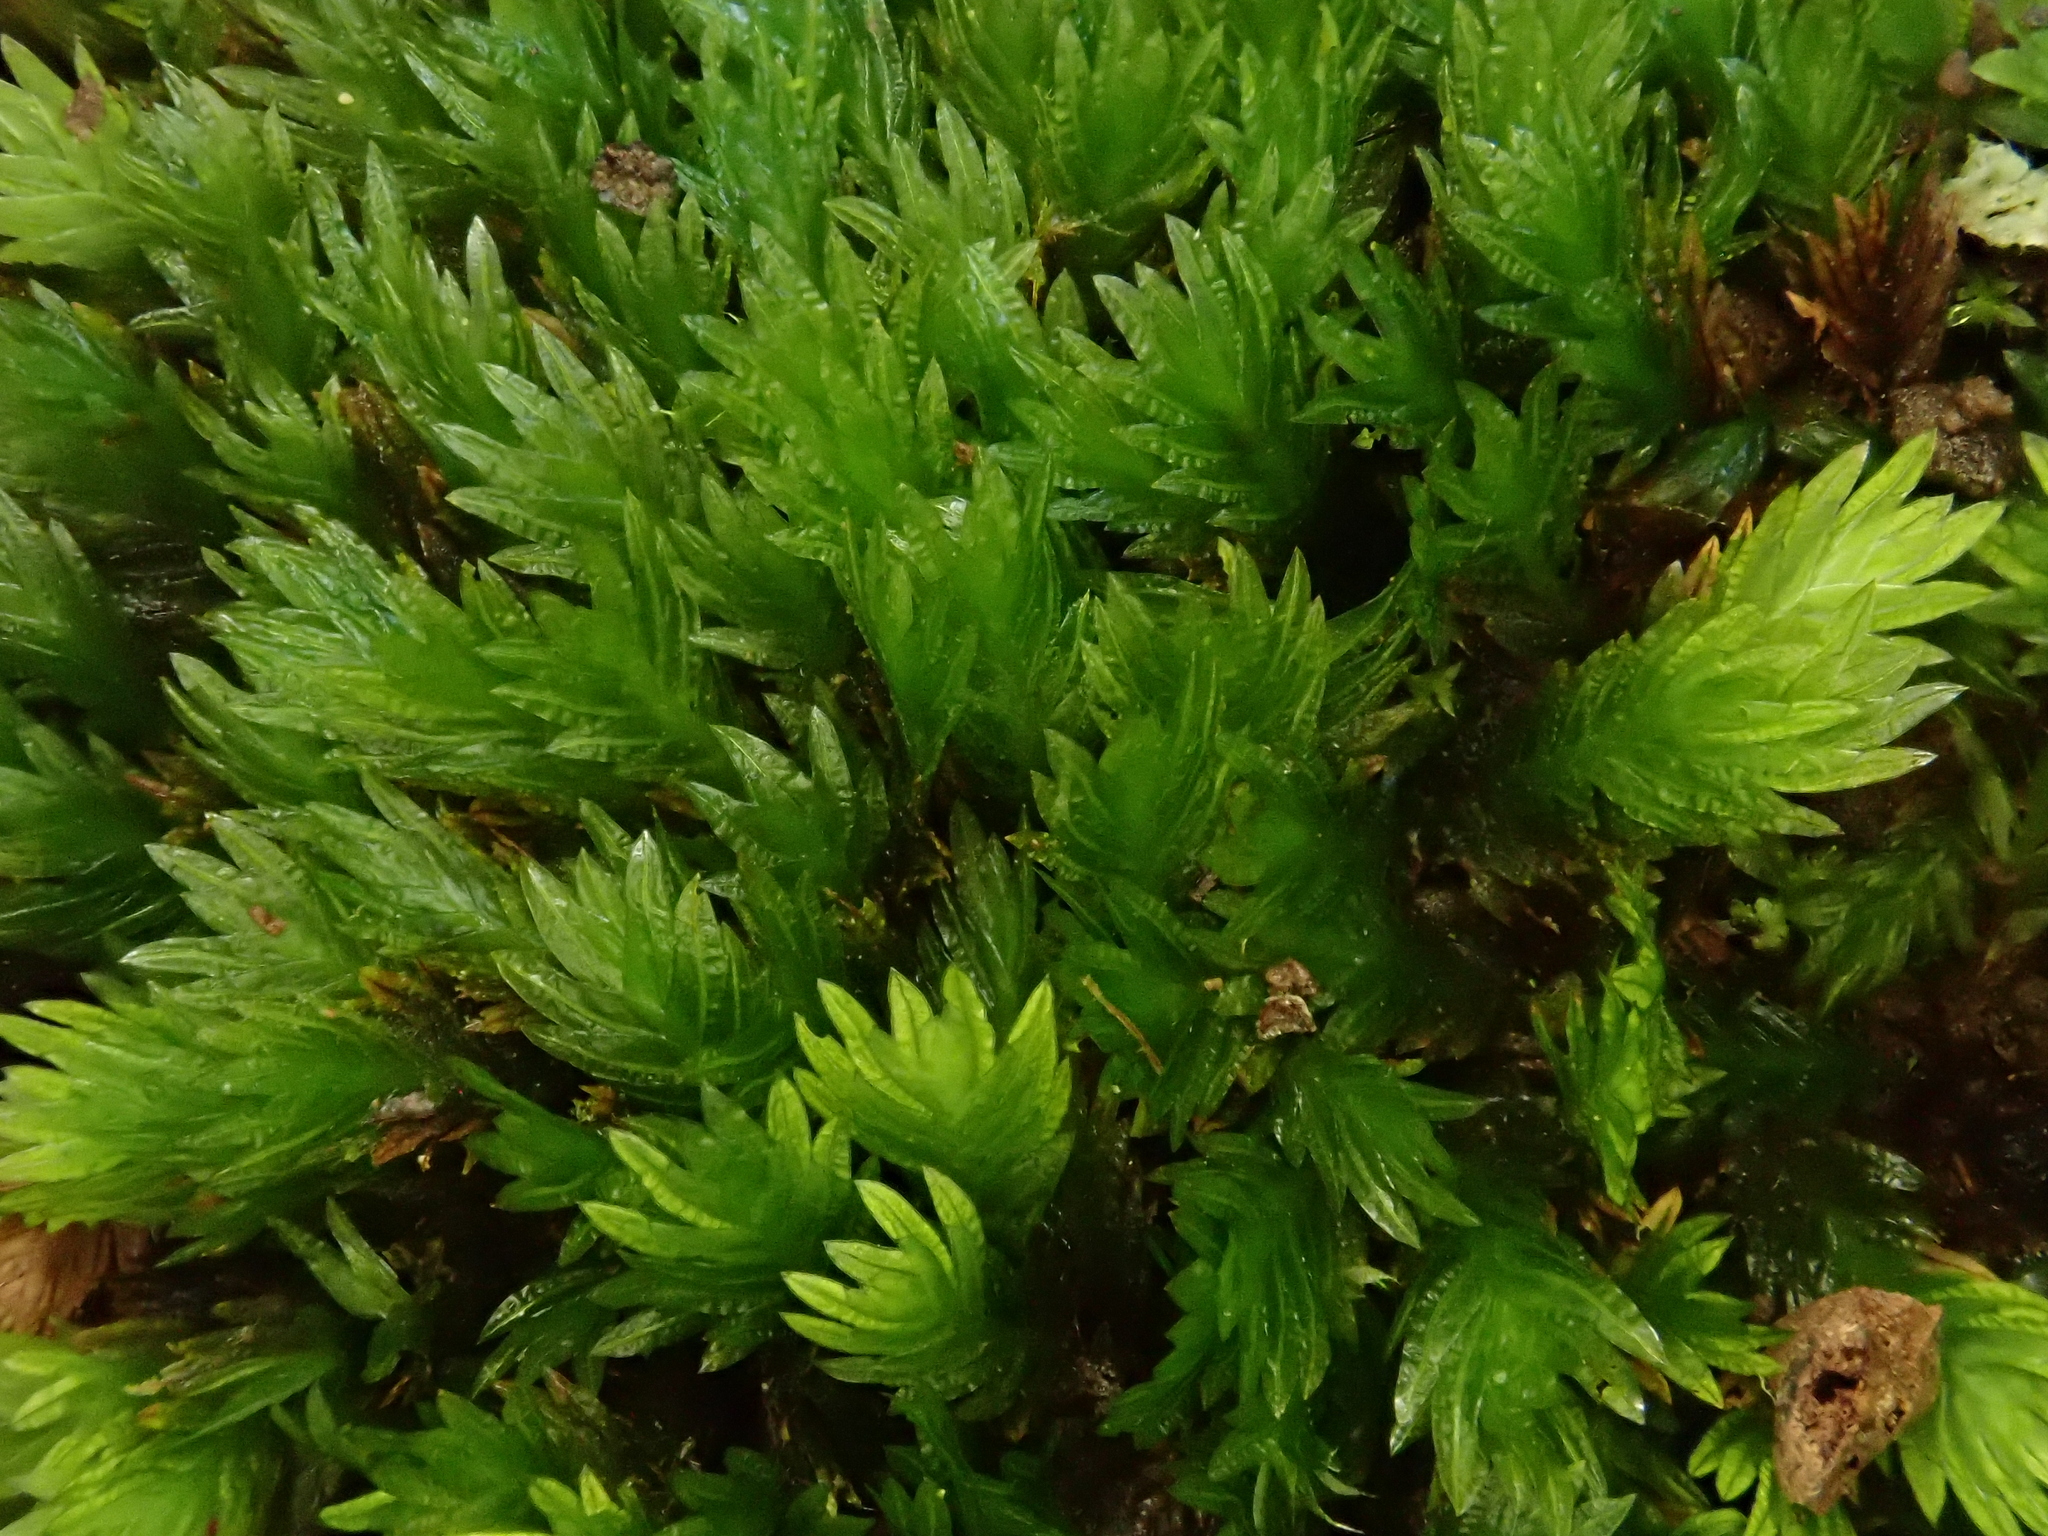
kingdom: Plantae
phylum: Bryophyta
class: Bryopsida
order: Dicranales
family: Fissidentaceae
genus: Fissidens
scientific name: Fissidens dubius
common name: Rock pocket moss
